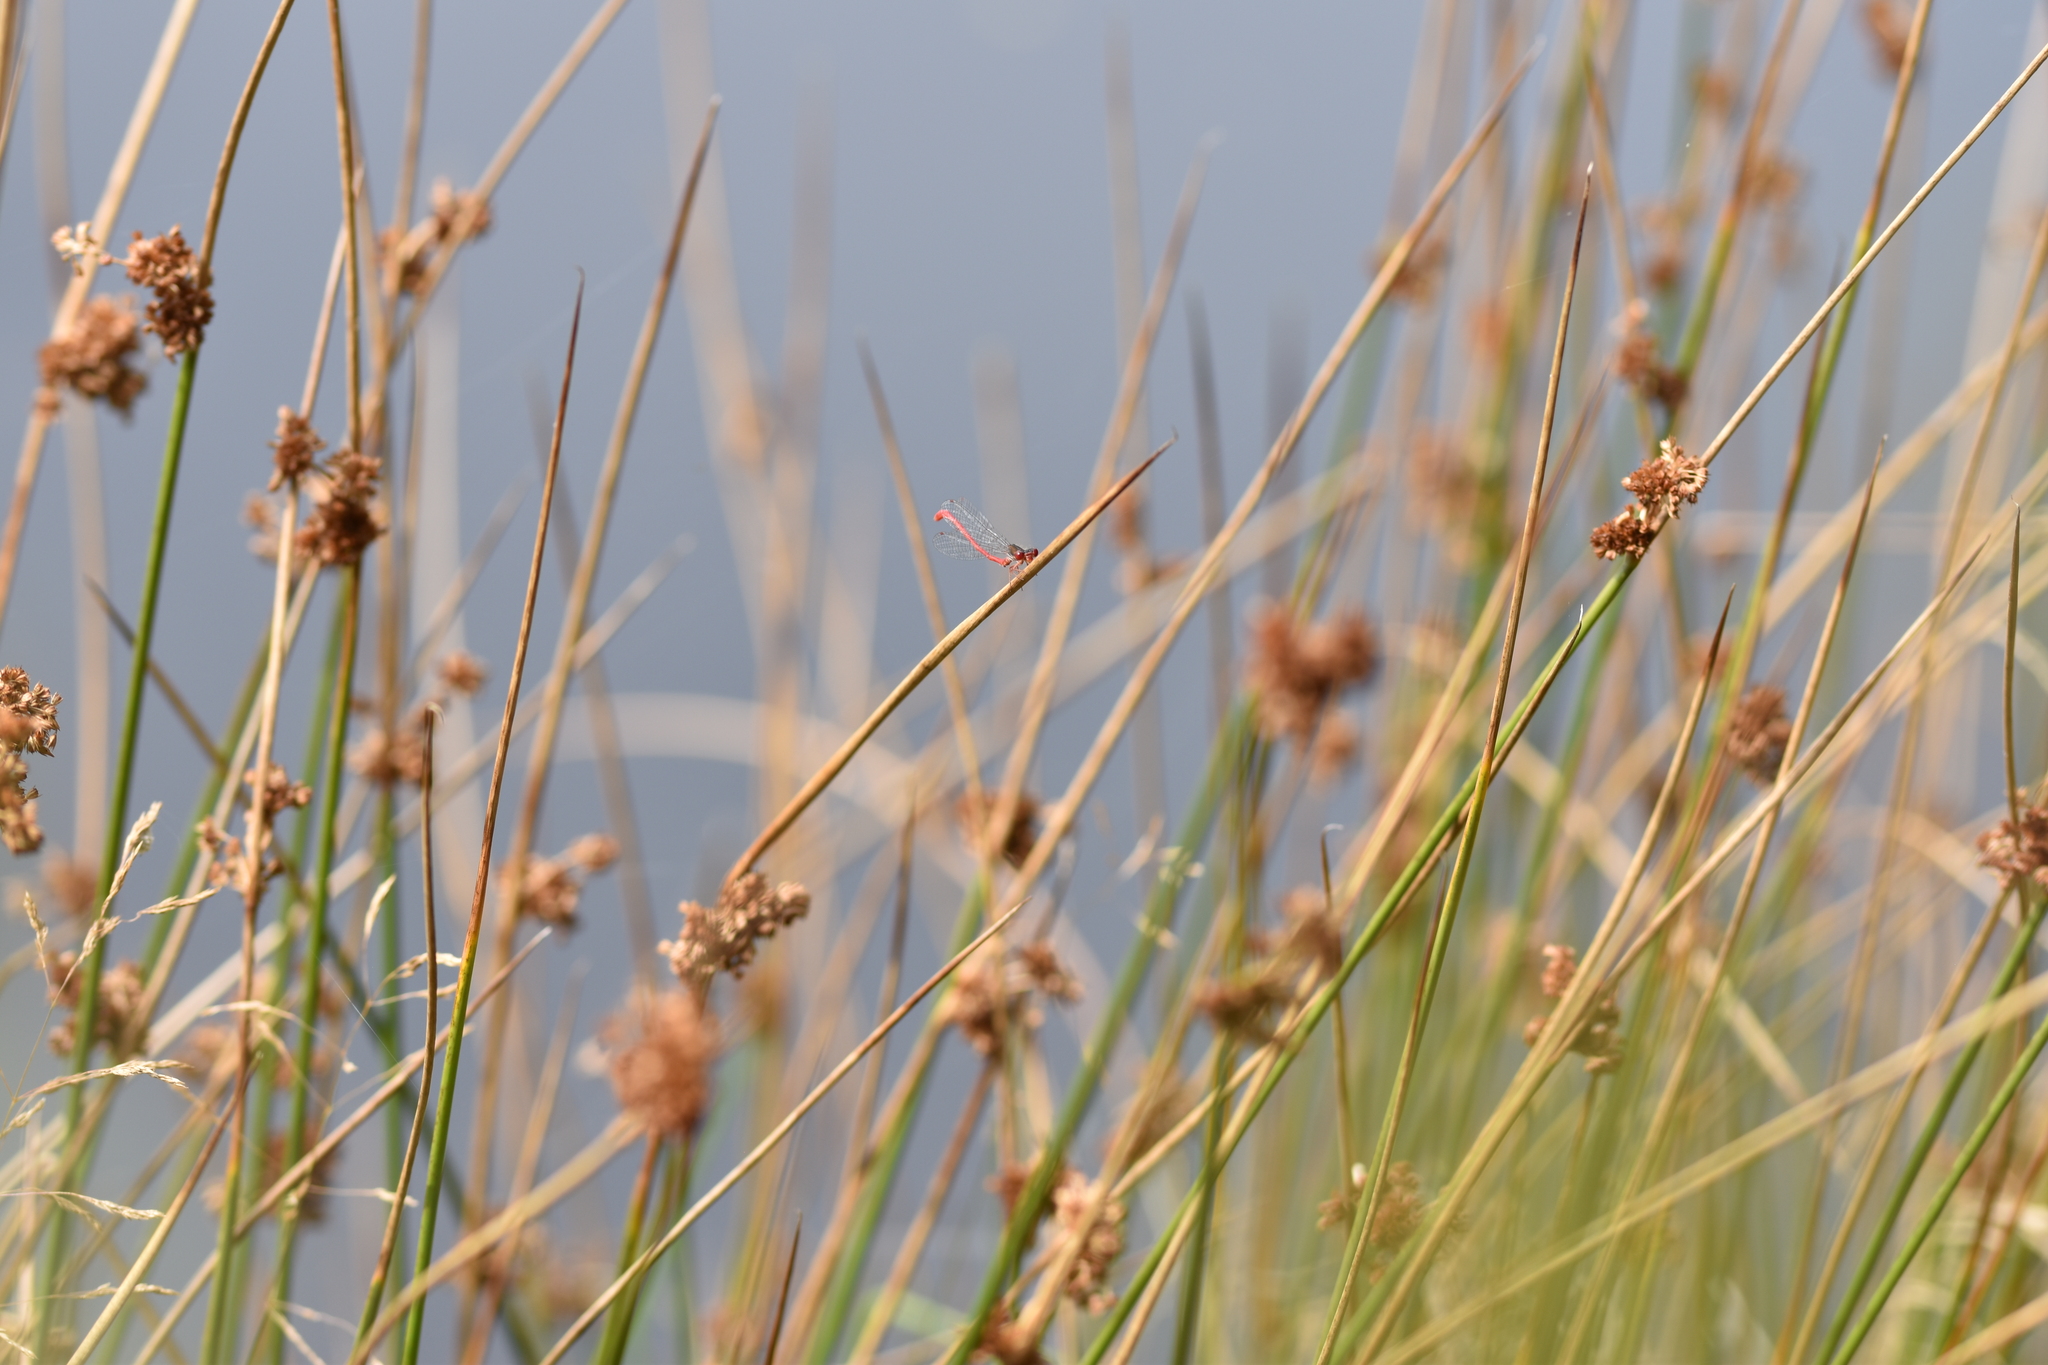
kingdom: Animalia
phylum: Arthropoda
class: Insecta
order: Odonata
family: Coenagrionidae
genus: Ceriagrion
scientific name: Ceriagrion tenellum
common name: Small red damselfly
